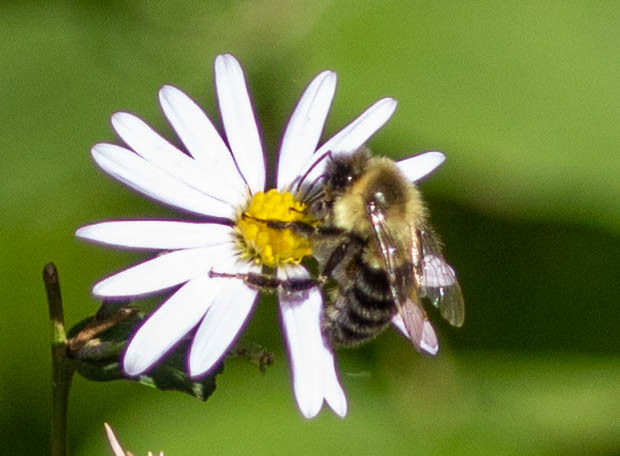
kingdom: Animalia
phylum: Arthropoda
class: Insecta
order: Hymenoptera
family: Apidae
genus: Bombus
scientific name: Bombus impatiens
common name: Common eastern bumble bee
